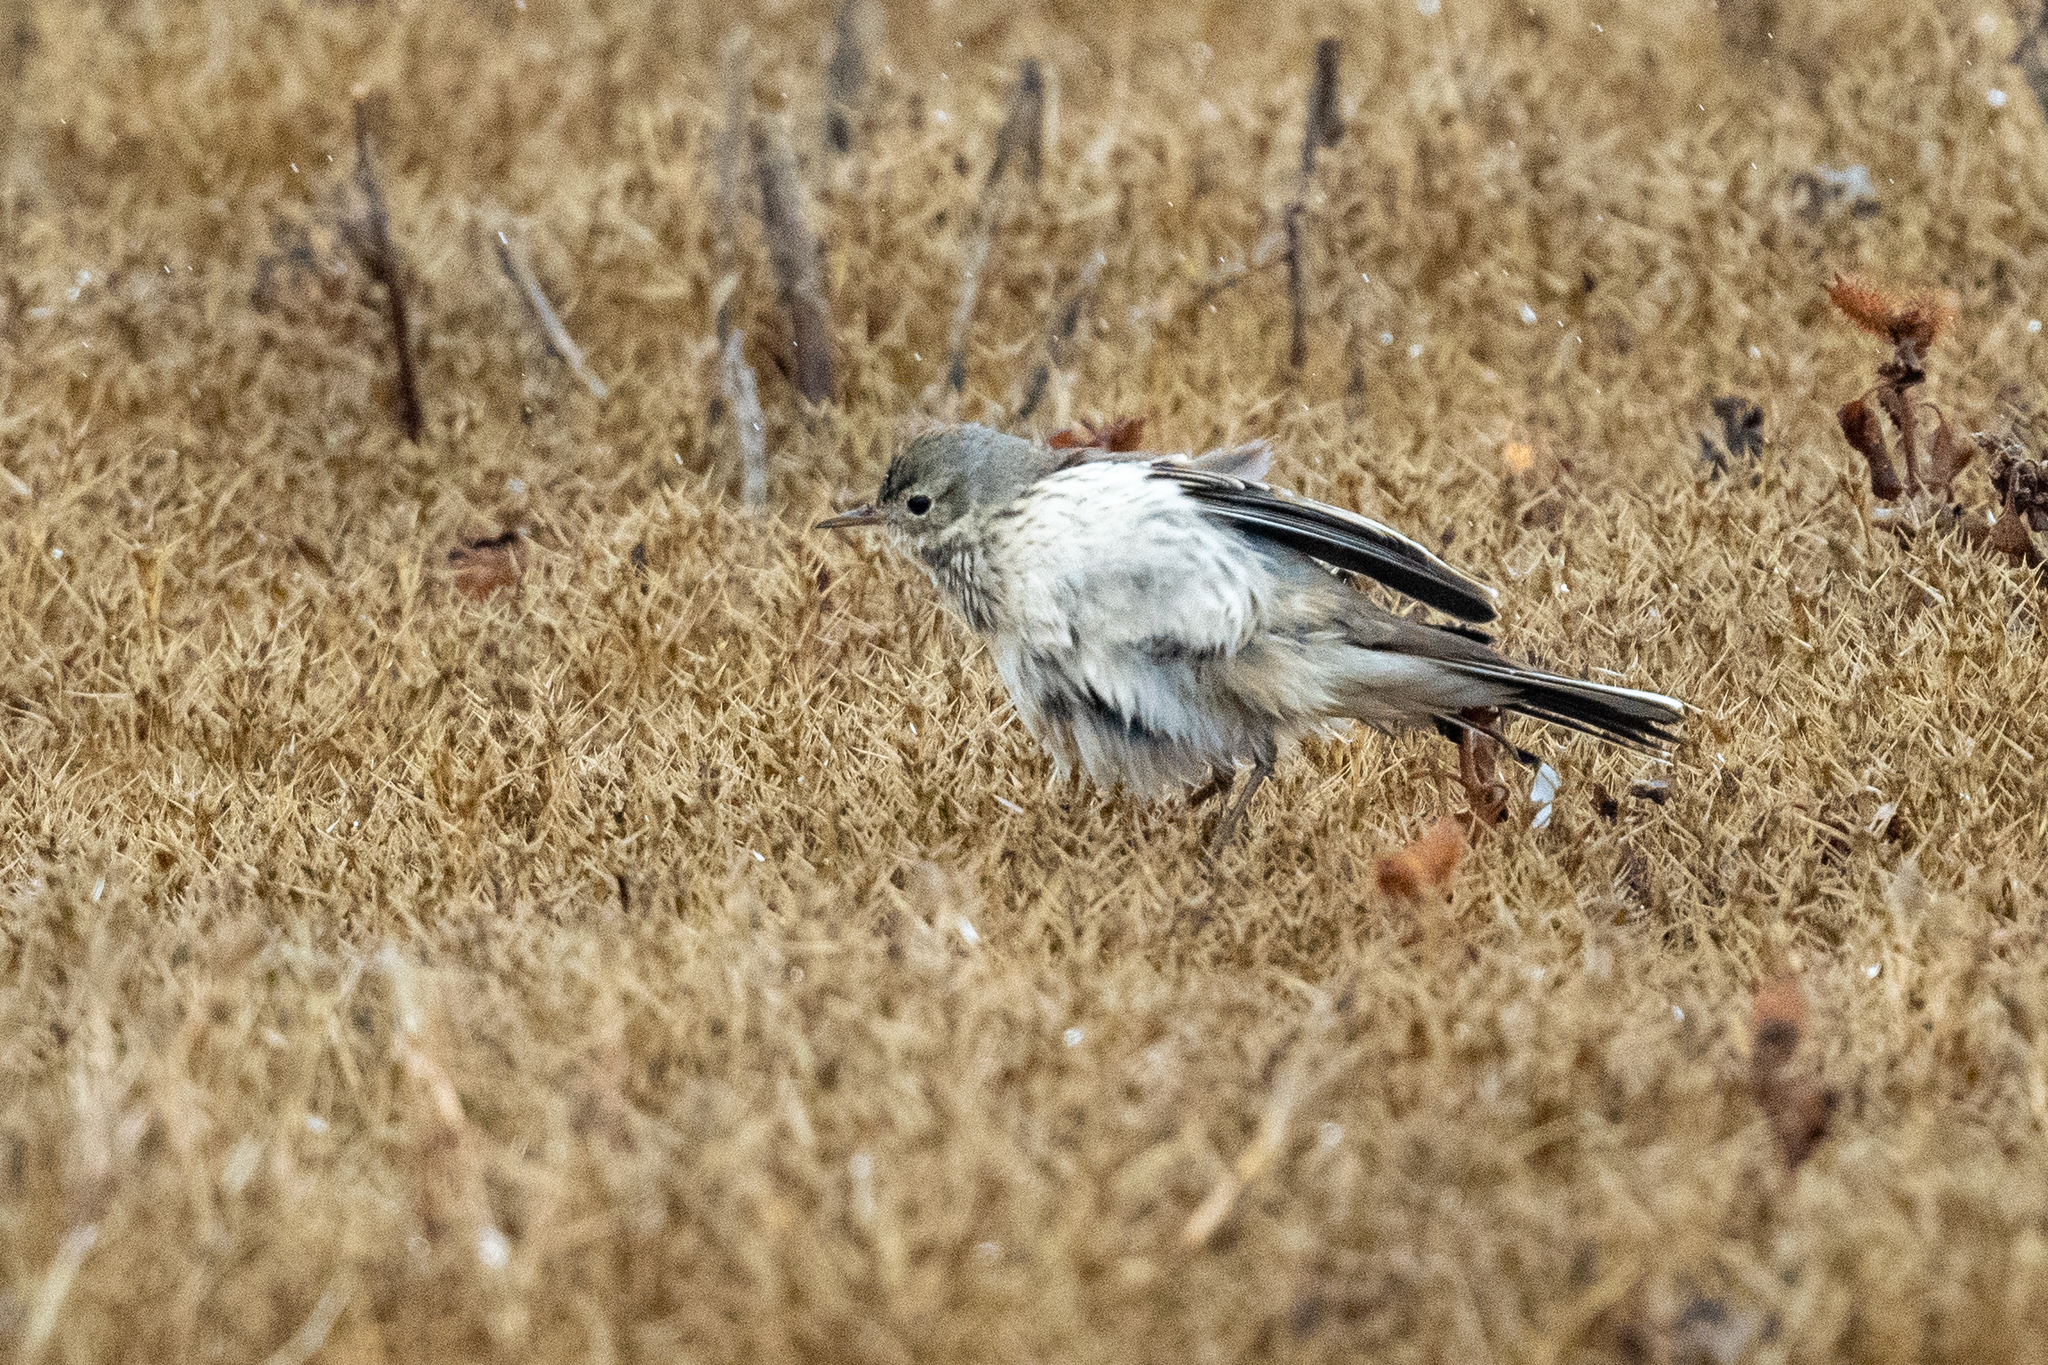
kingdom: Animalia
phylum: Chordata
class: Aves
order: Passeriformes
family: Motacillidae
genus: Anthus
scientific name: Anthus rubescens
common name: Buff-bellied pipit
